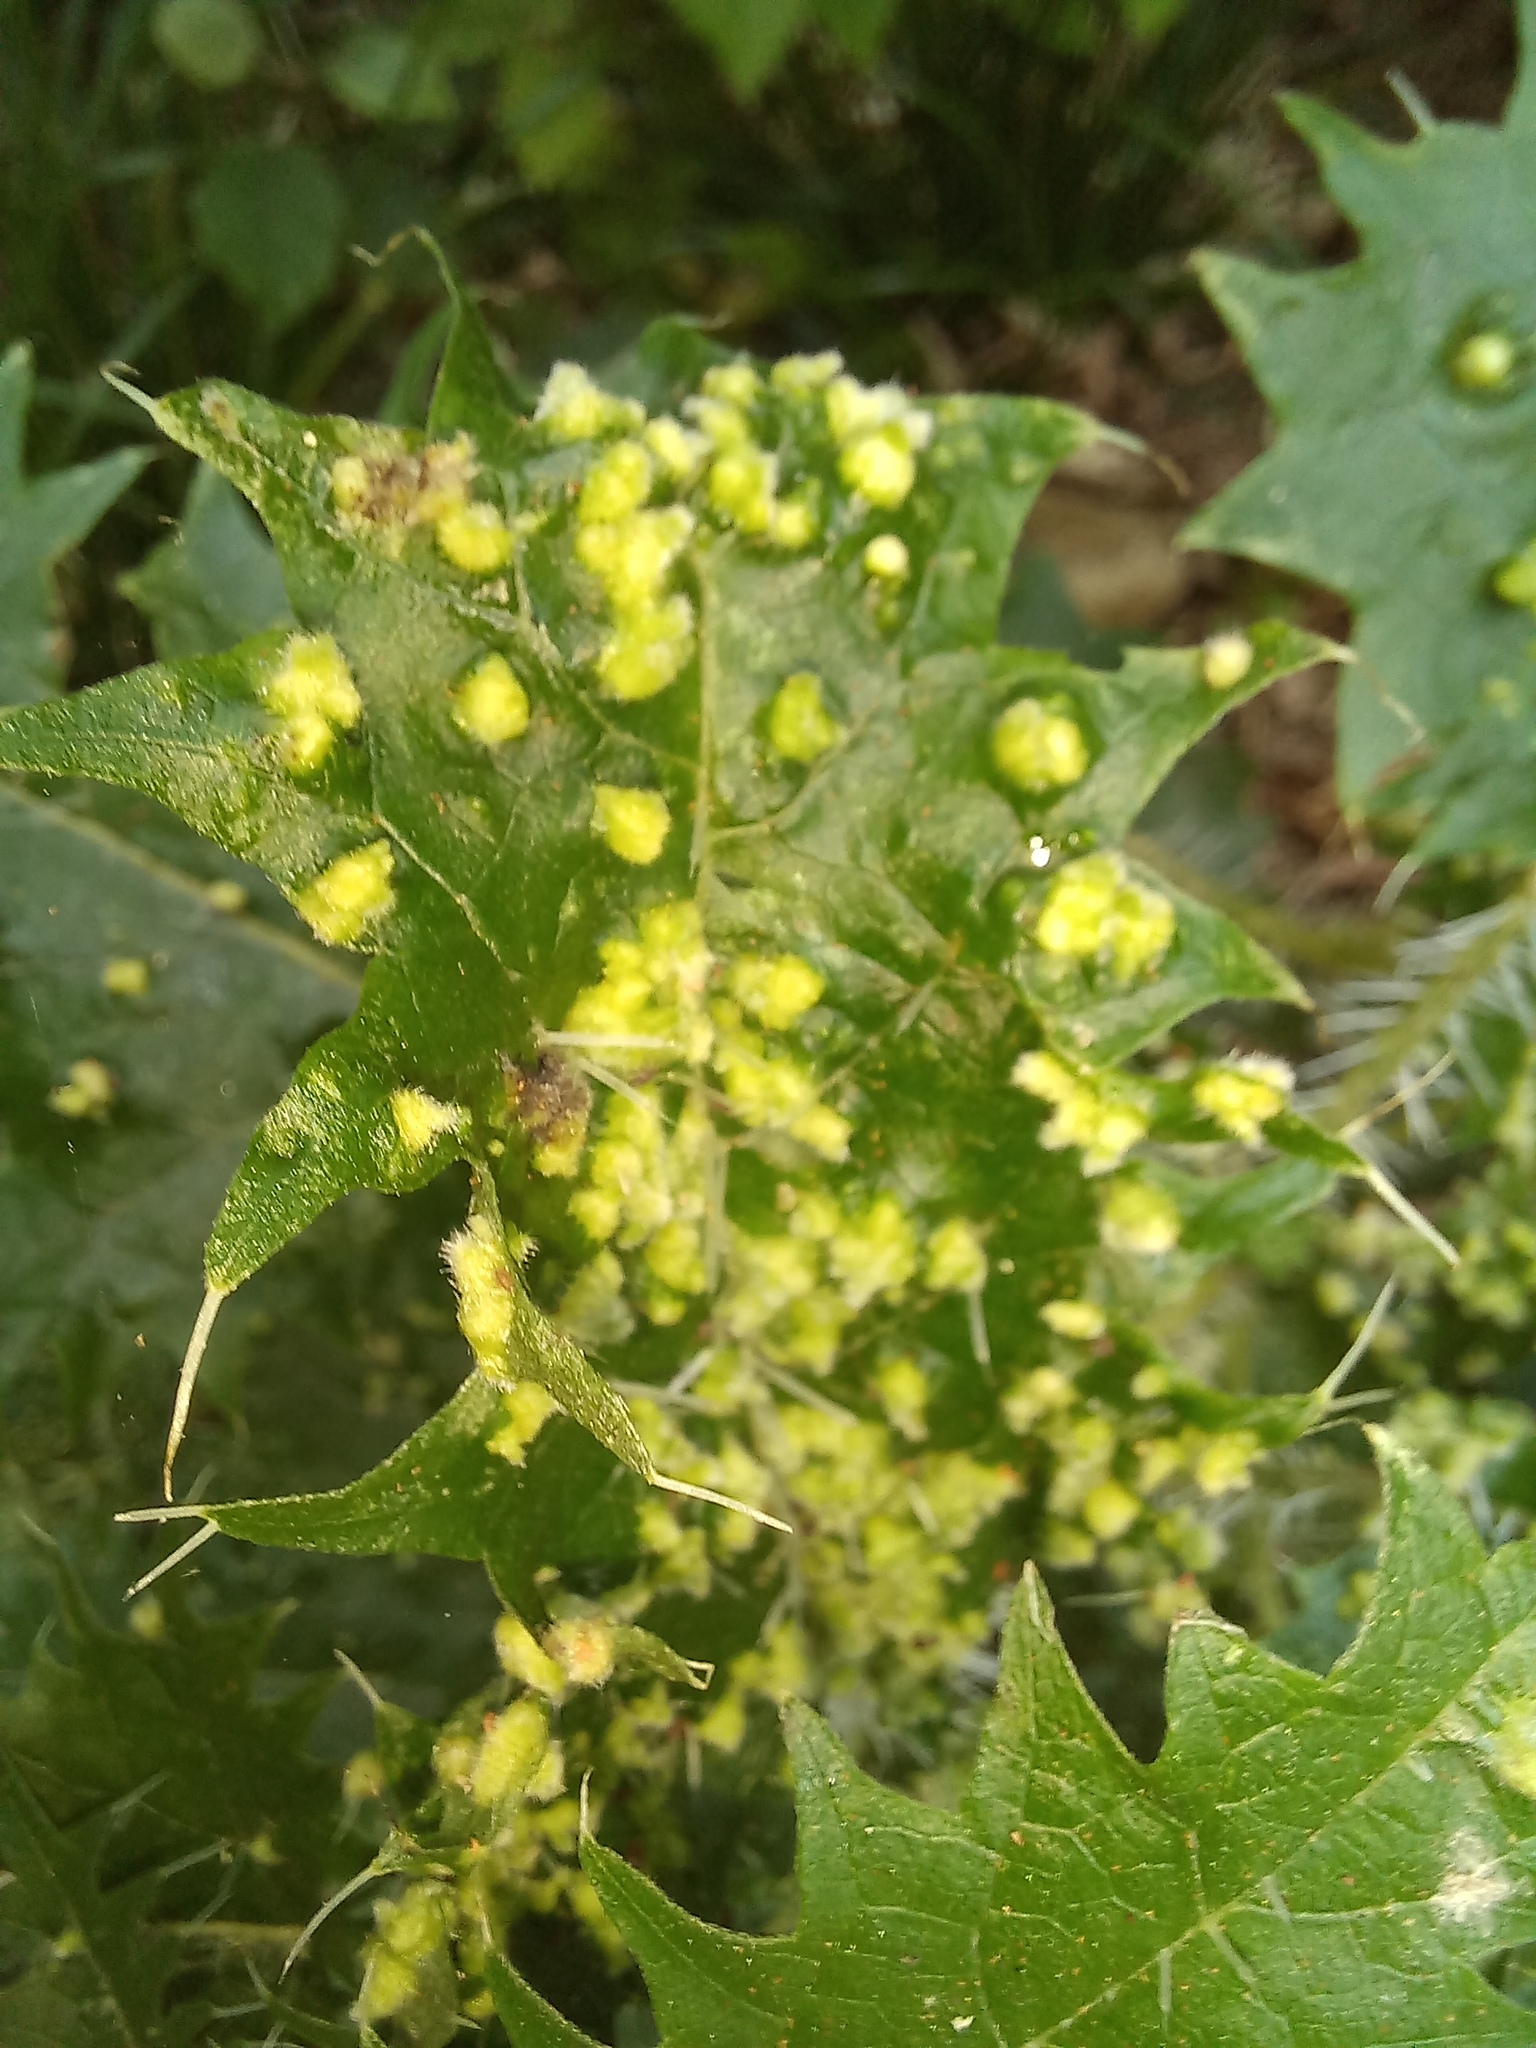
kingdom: Animalia
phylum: Arthropoda
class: Arachnida
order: Trombidiformes
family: Eriophyidae
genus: Vittacus
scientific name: Vittacus
